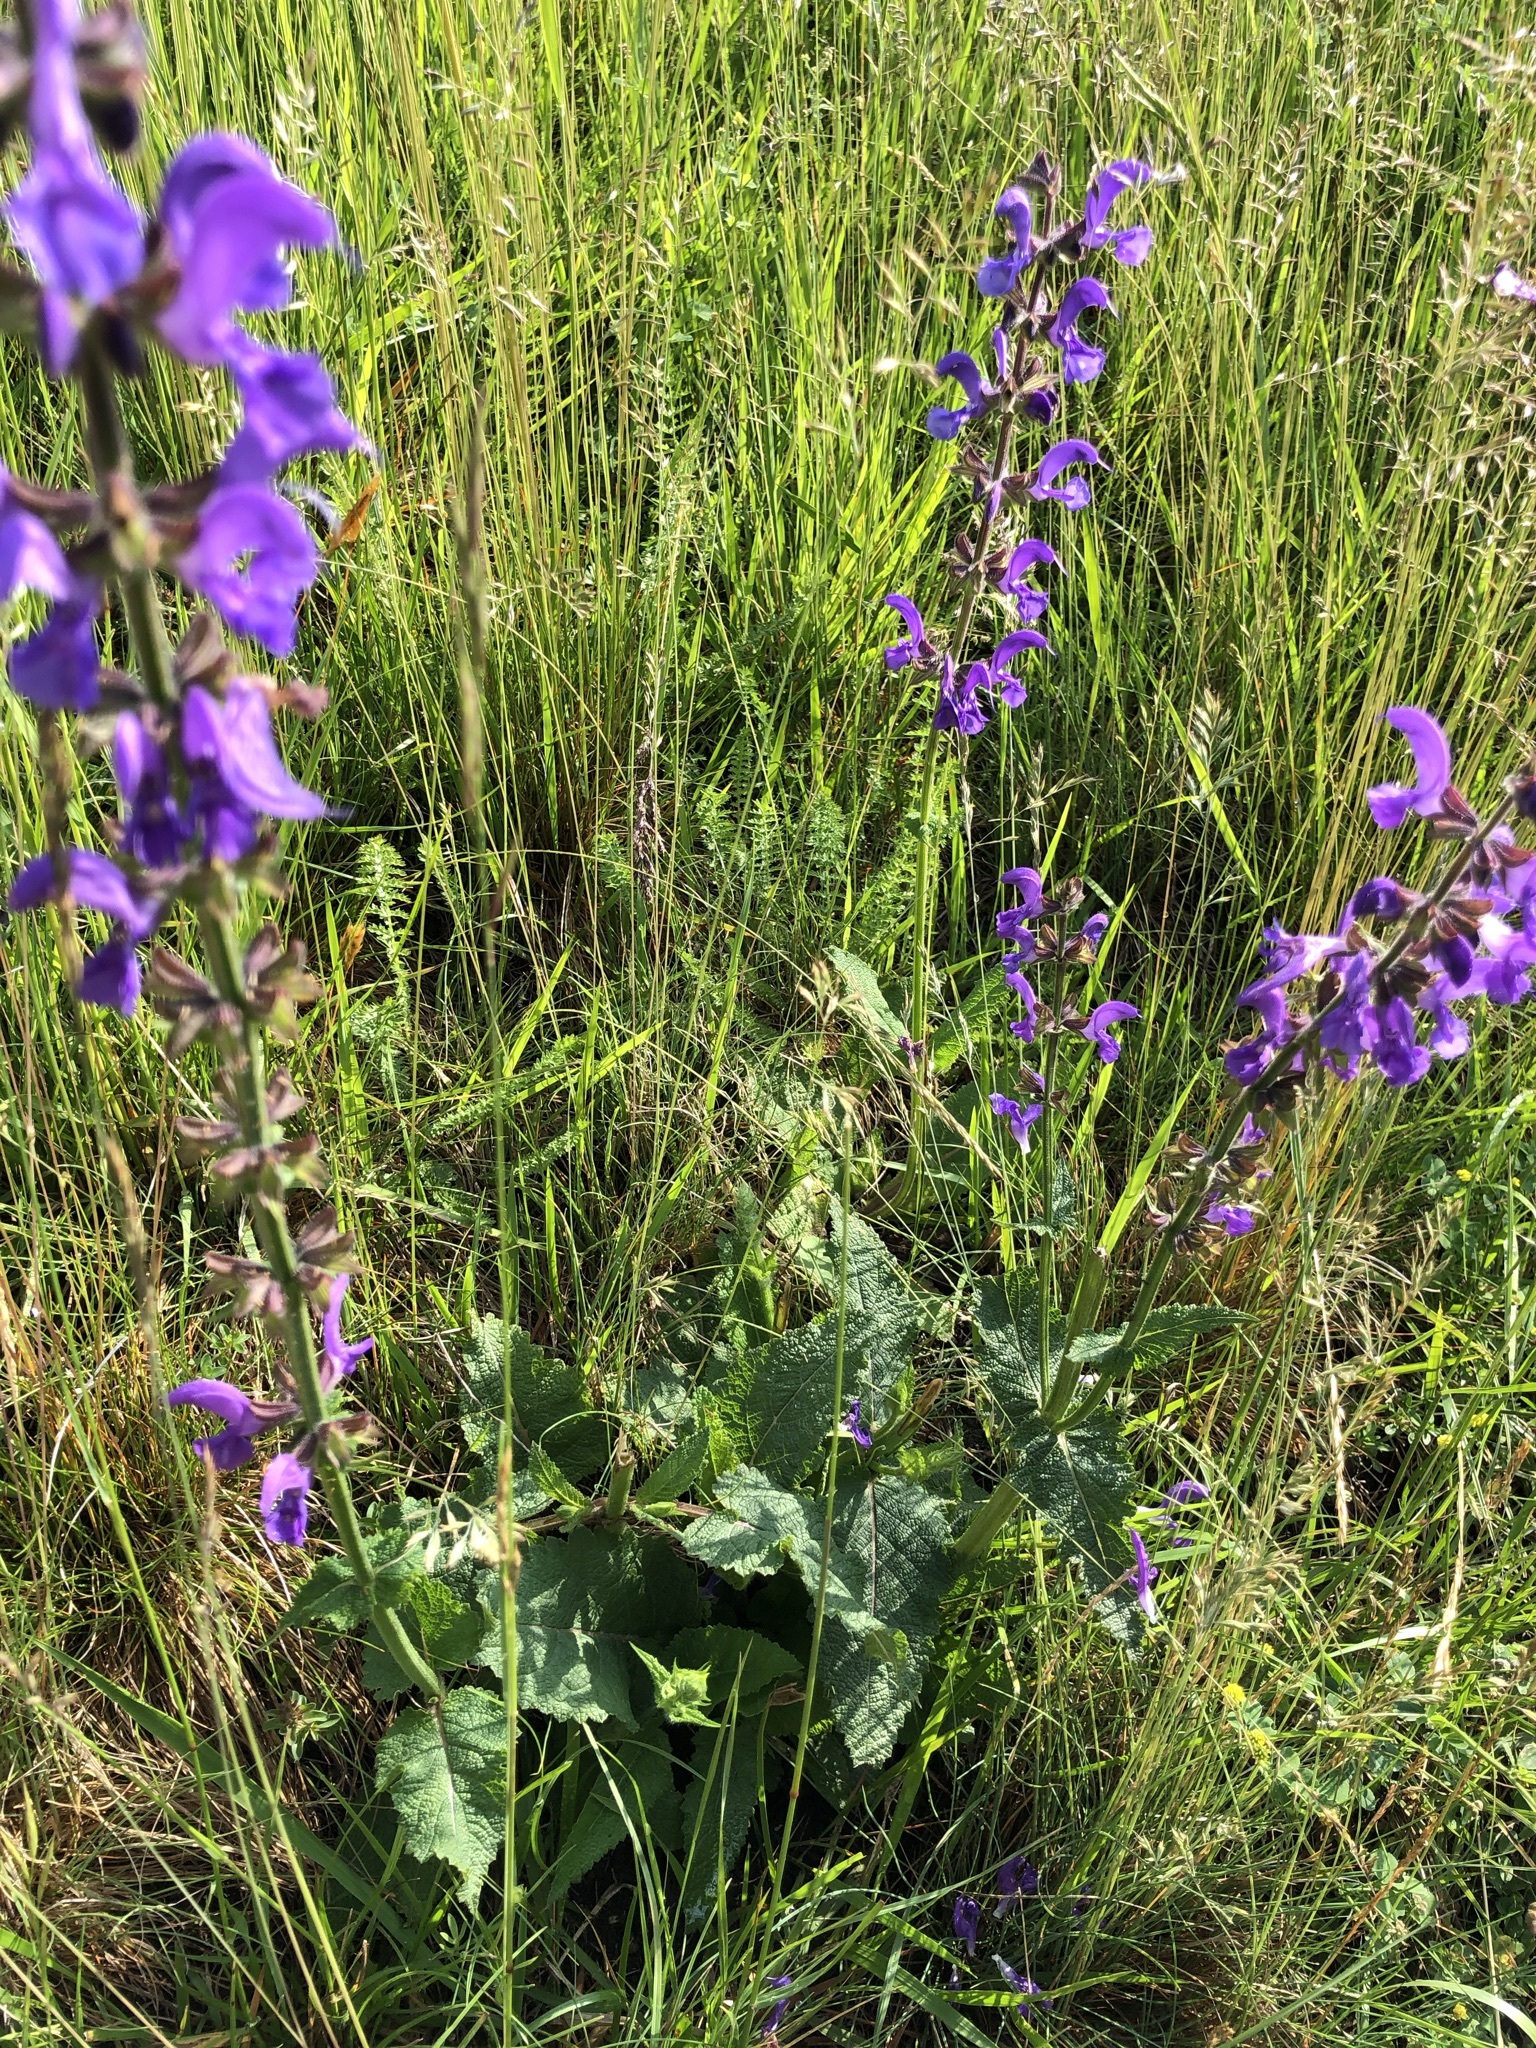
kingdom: Plantae
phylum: Tracheophyta
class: Magnoliopsida
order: Lamiales
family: Lamiaceae
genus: Salvia
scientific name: Salvia pratensis
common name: Meadow sage
